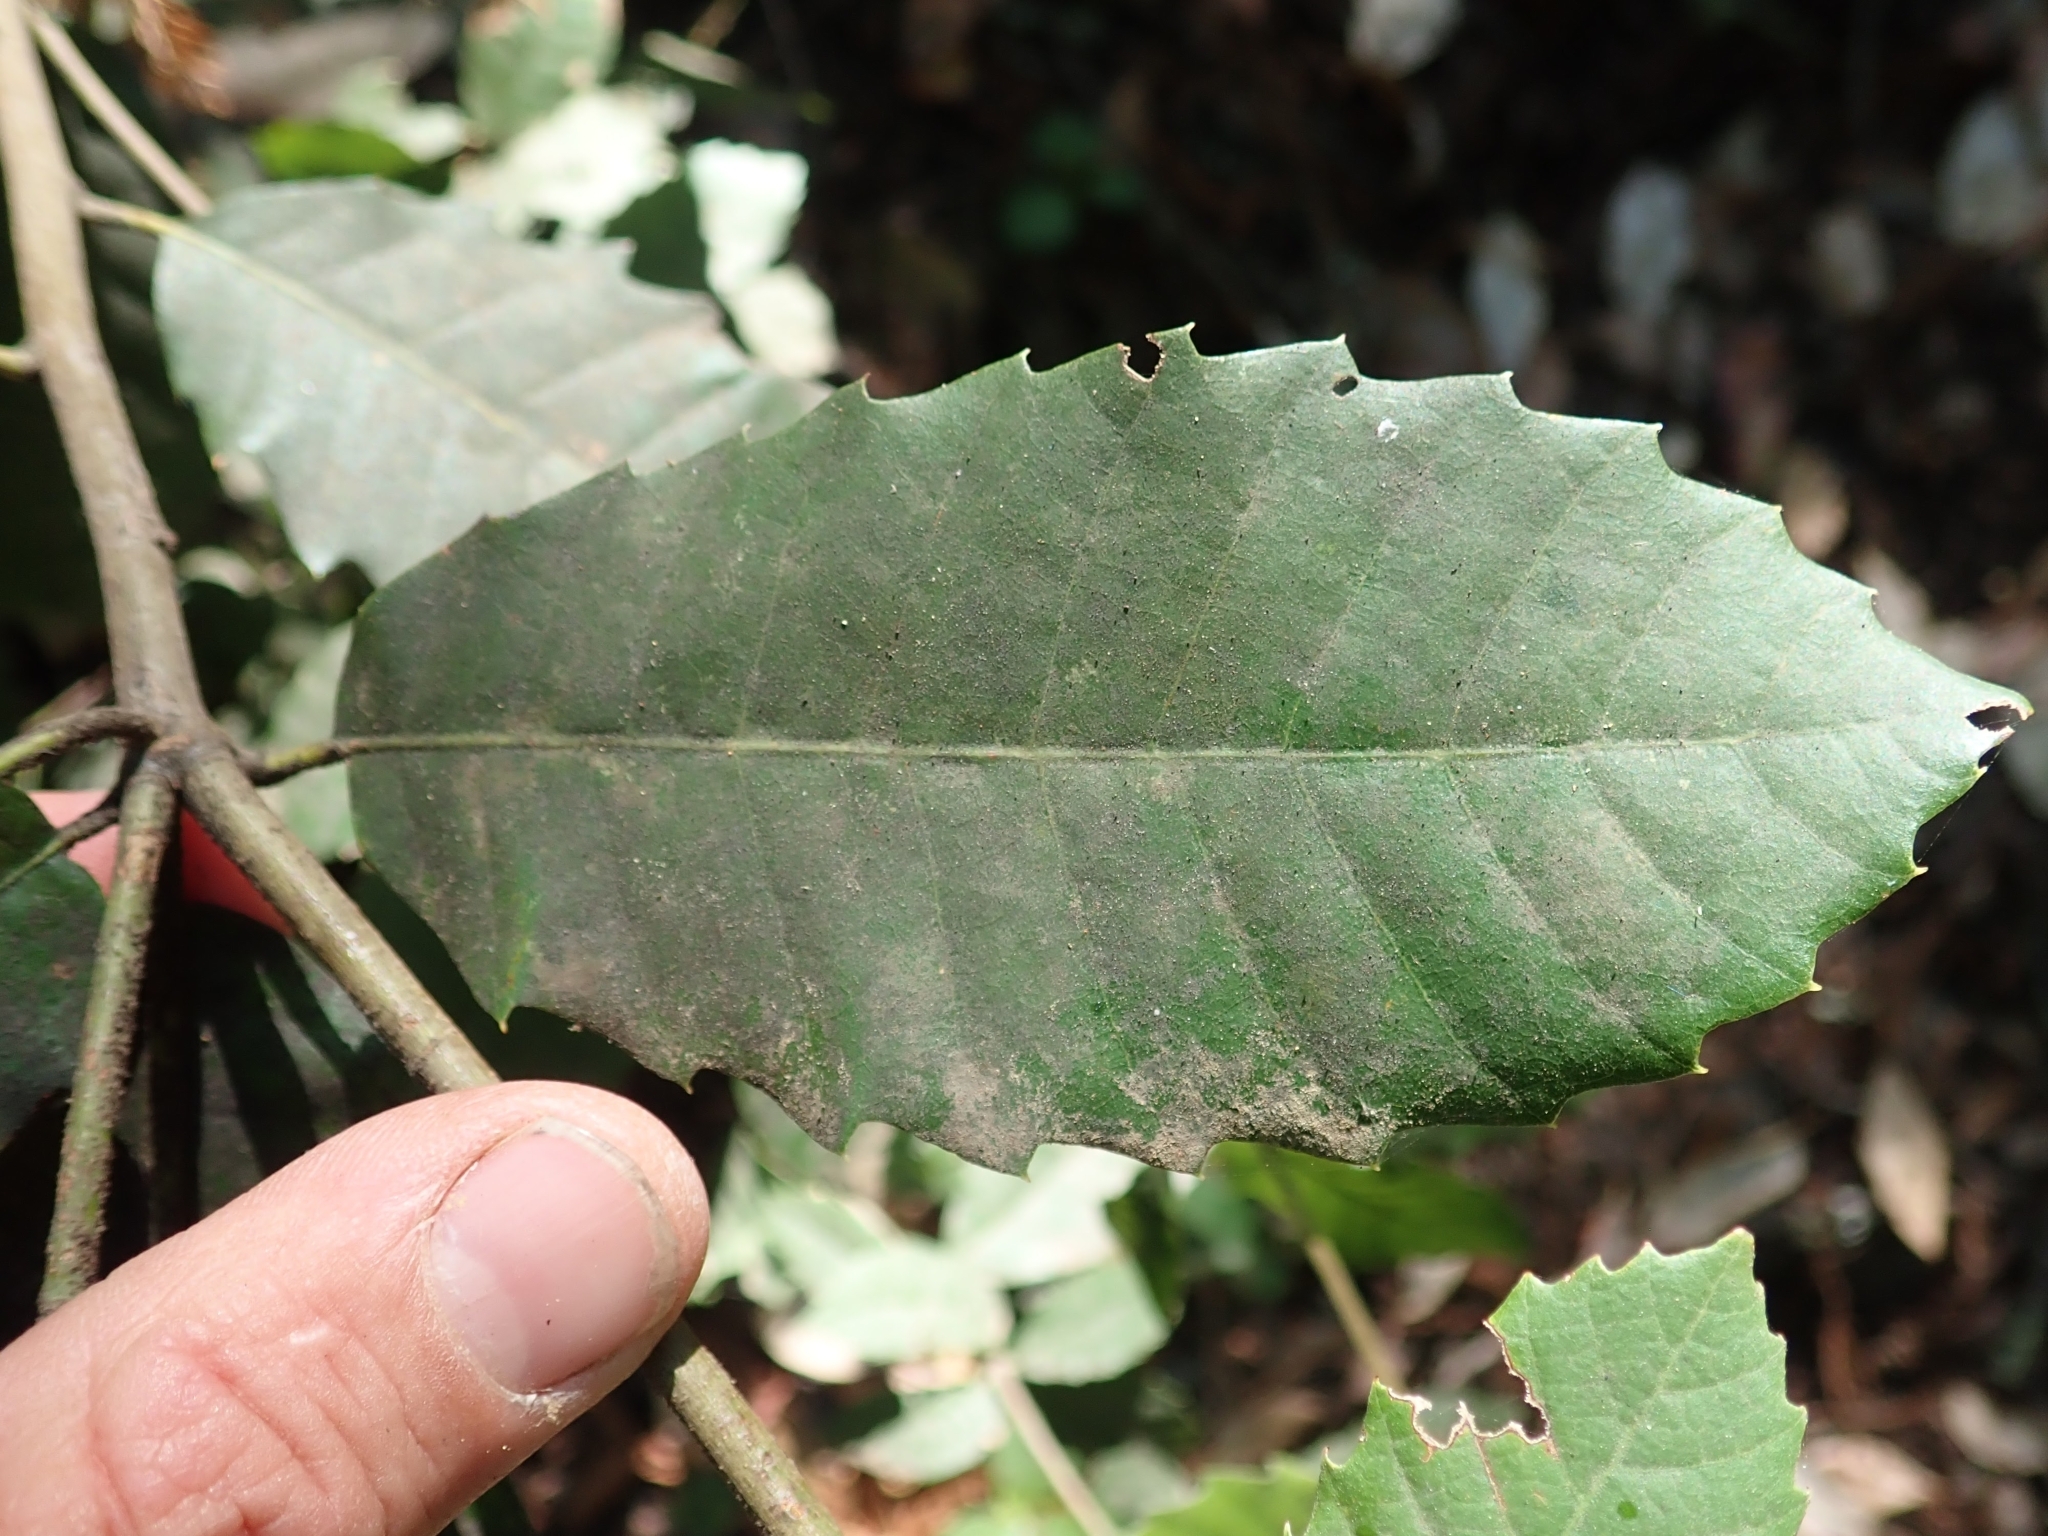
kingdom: Plantae
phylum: Tracheophyta
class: Magnoliopsida
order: Fagales
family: Fagaceae
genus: Notholithocarpus
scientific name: Notholithocarpus densiflorus
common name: Tan bark oak
